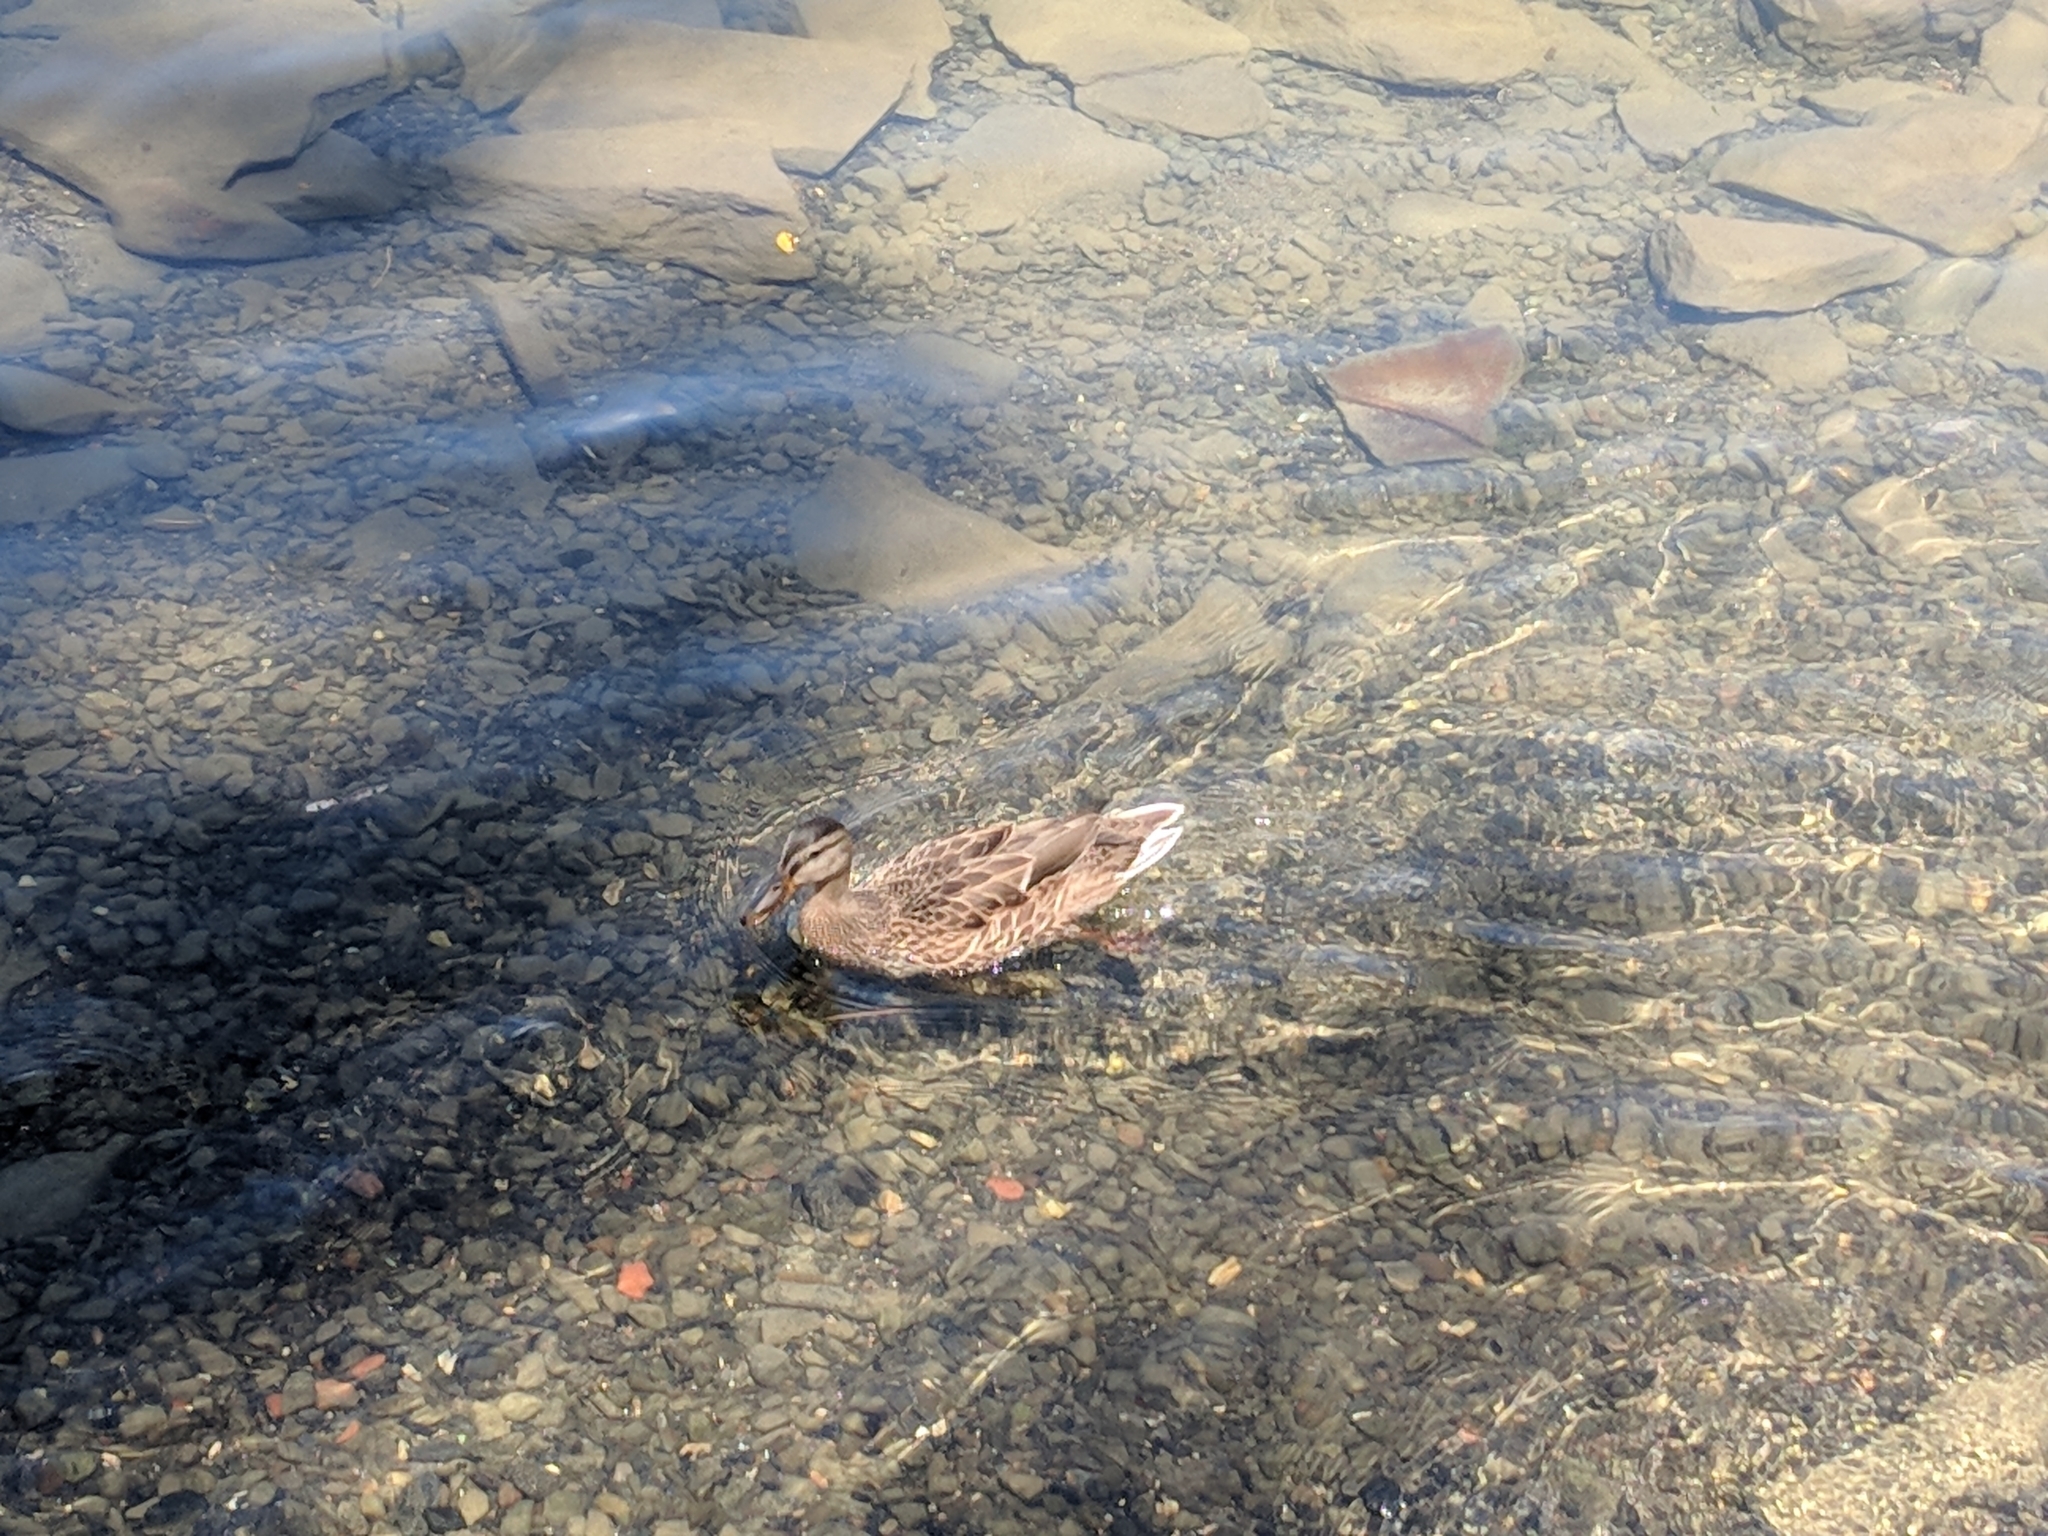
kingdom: Animalia
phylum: Chordata
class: Aves
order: Anseriformes
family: Anatidae
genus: Anas
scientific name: Anas platyrhynchos
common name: Mallard
